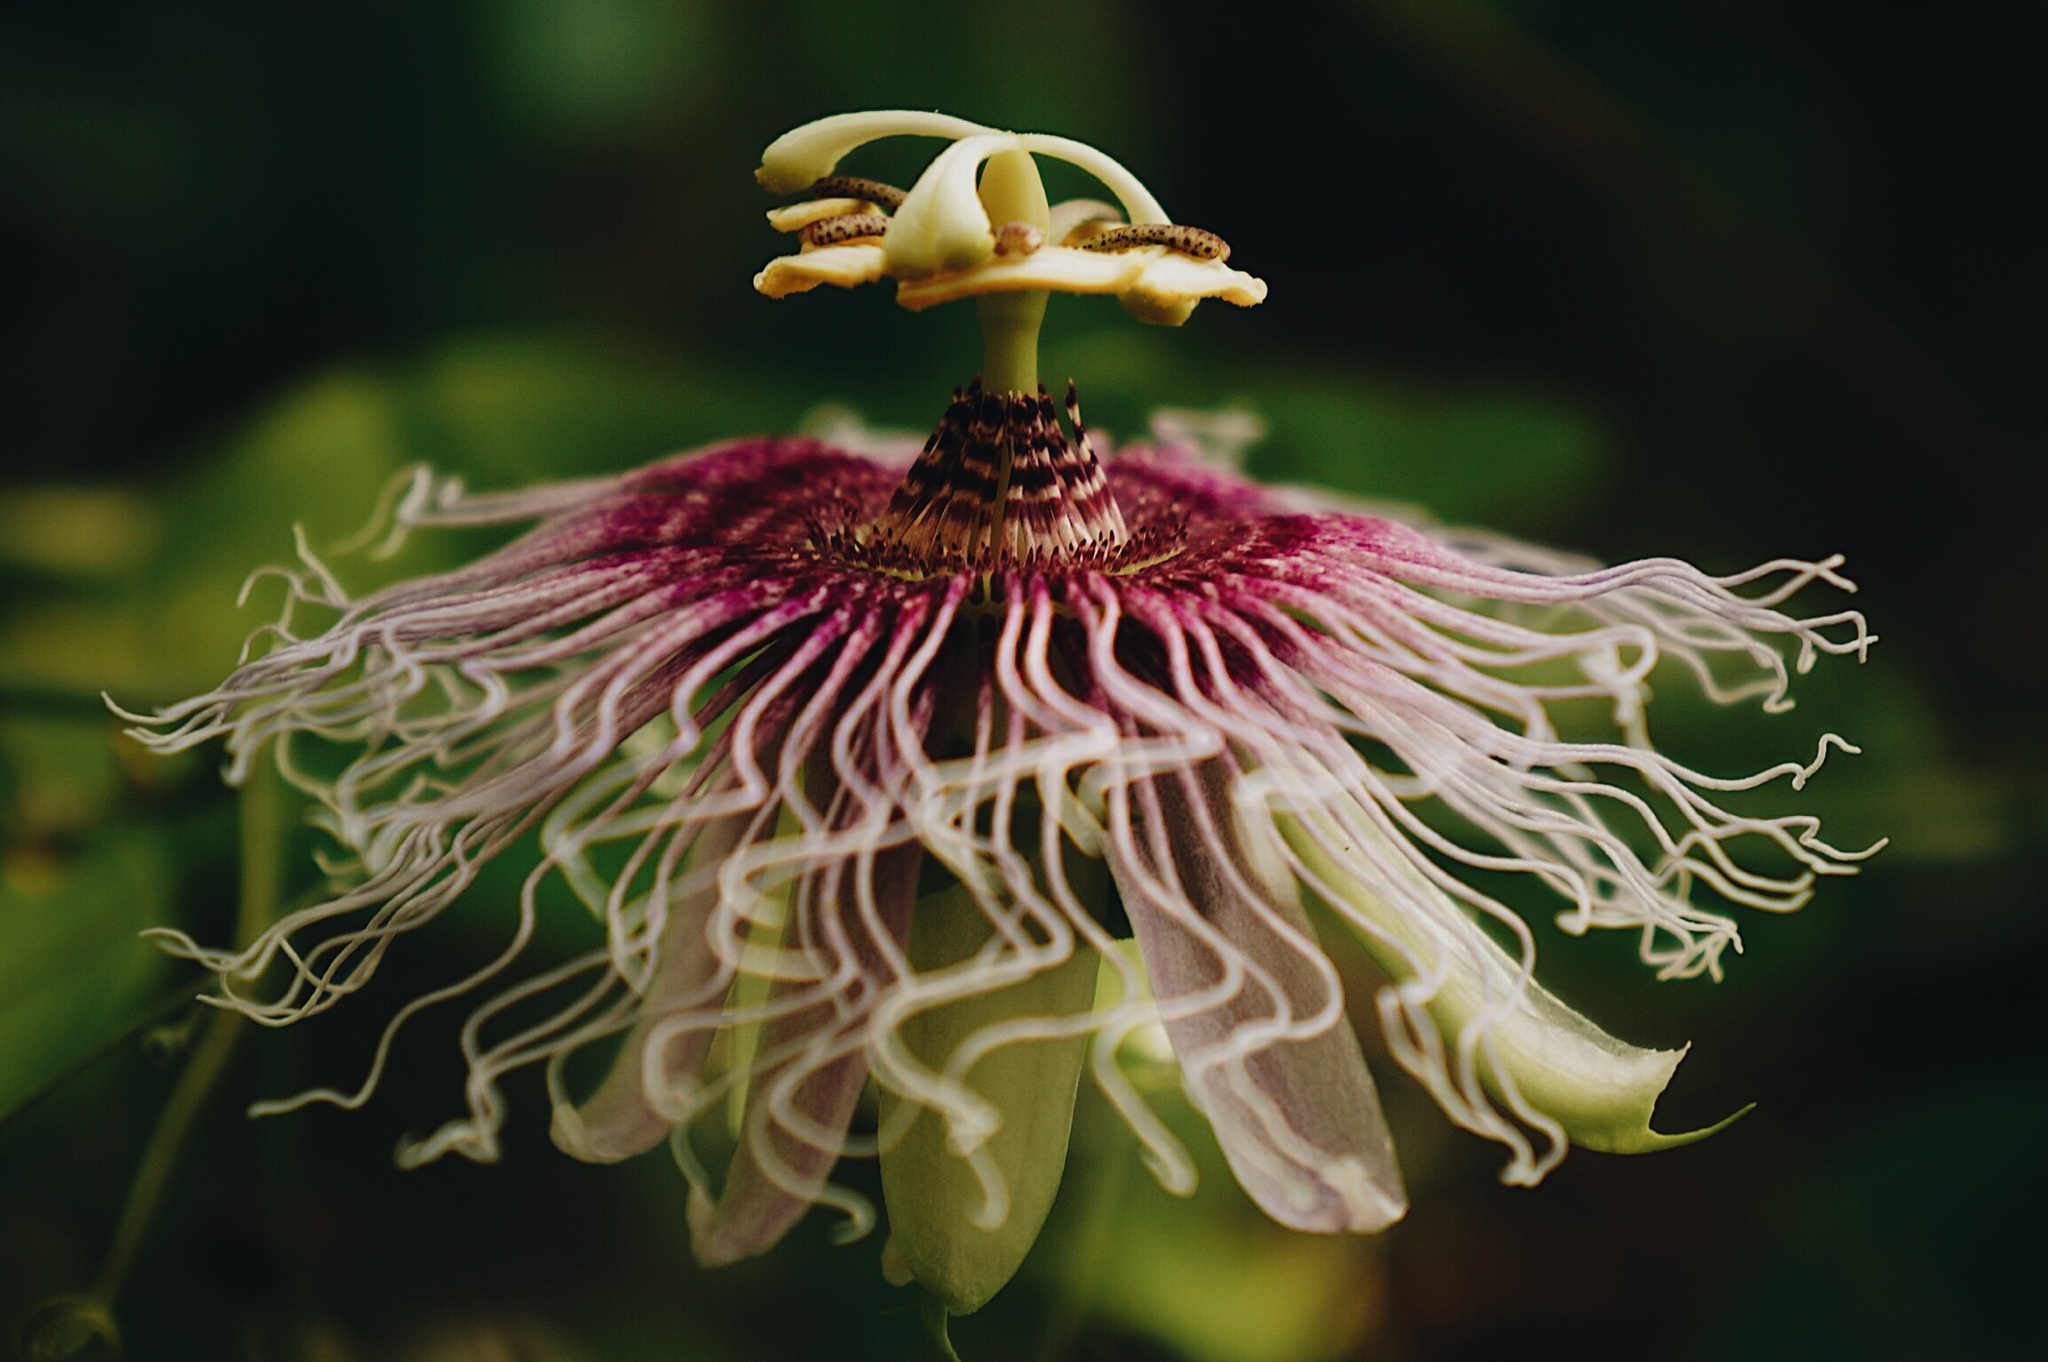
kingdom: Plantae
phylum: Tracheophyta
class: Magnoliopsida
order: Malpighiales
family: Passifloraceae
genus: Passiflora
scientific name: Passiflora serratifolia
